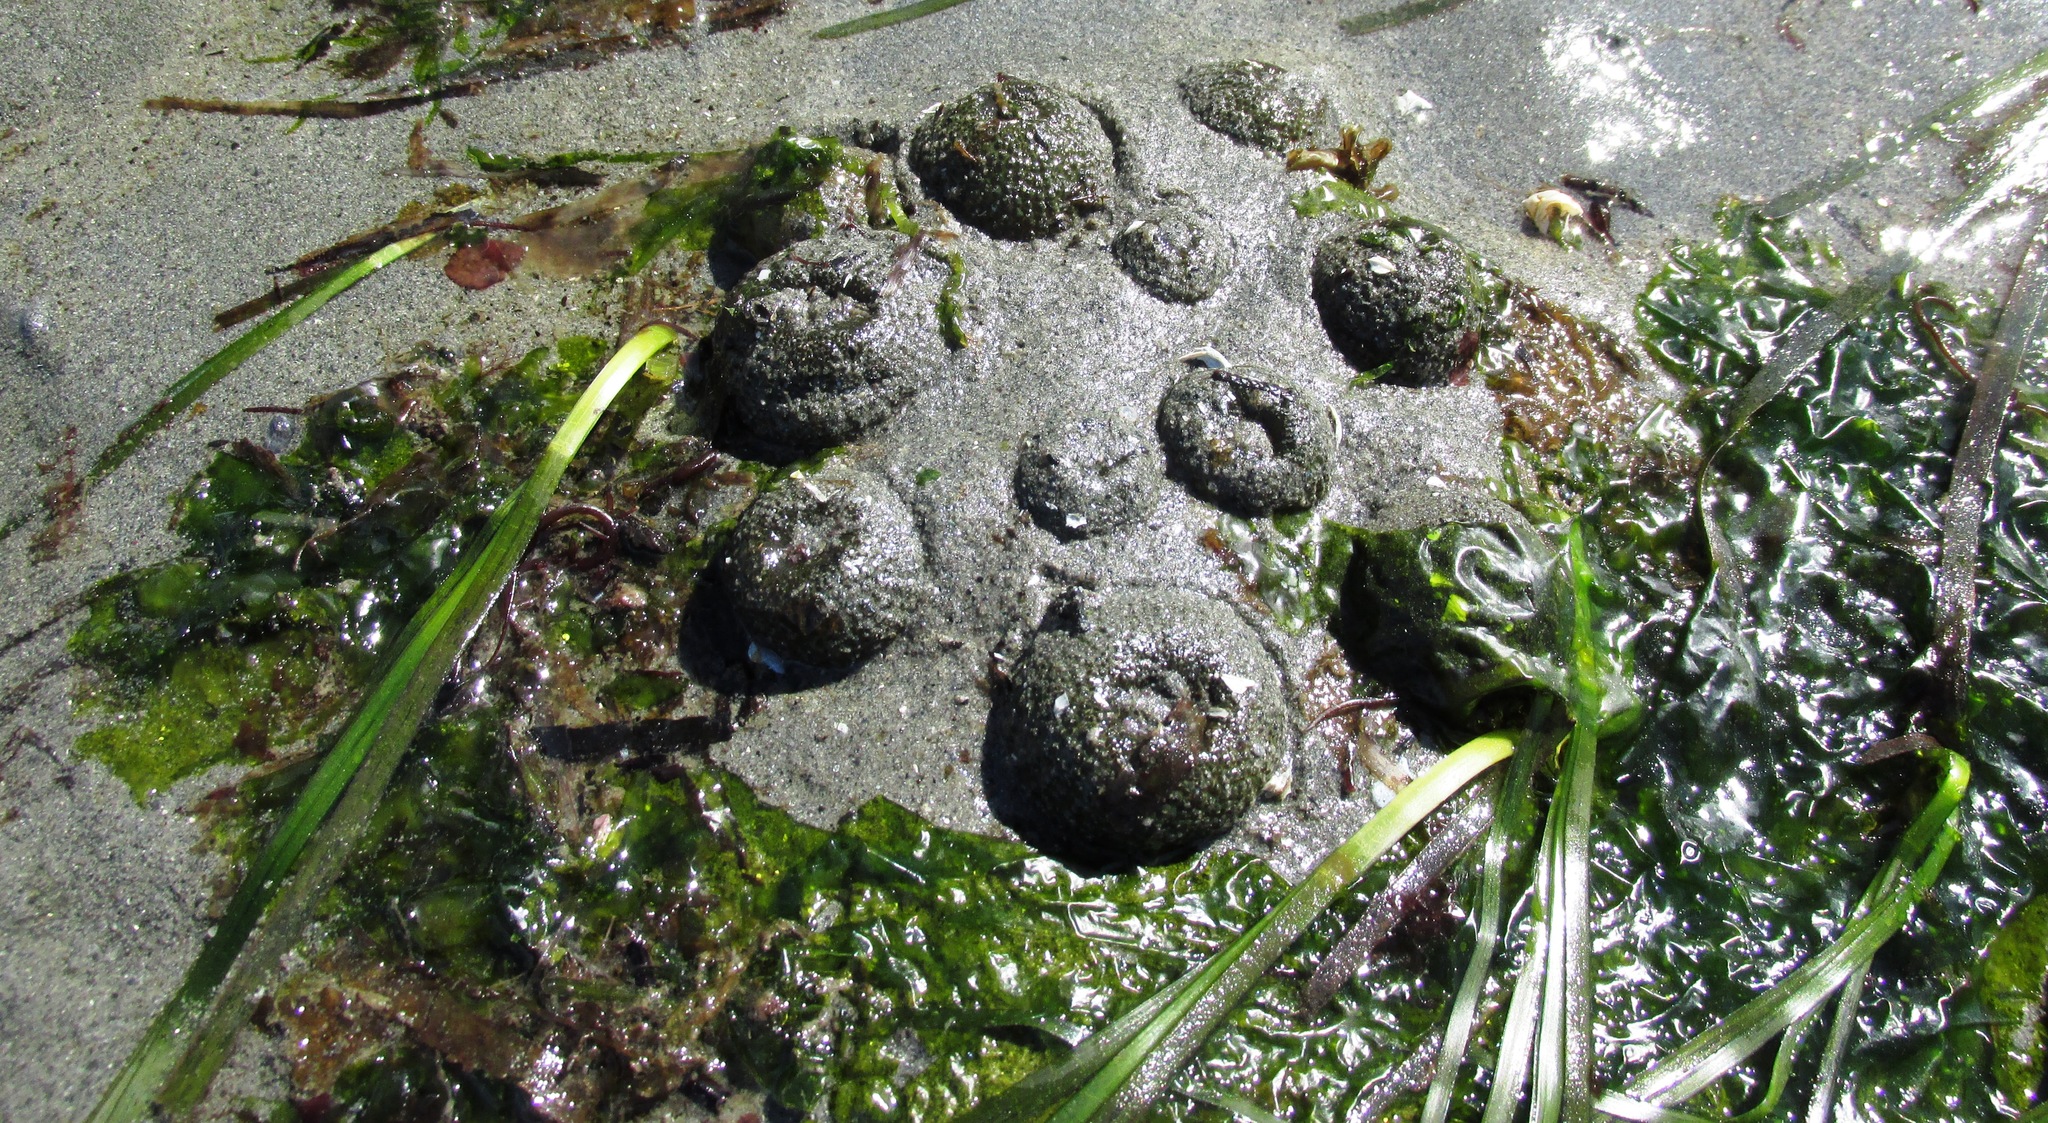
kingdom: Animalia
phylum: Cnidaria
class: Anthozoa
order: Actiniaria
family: Actiniidae
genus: Anthopleura
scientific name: Anthopleura elegantissima
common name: Clonal anemone
